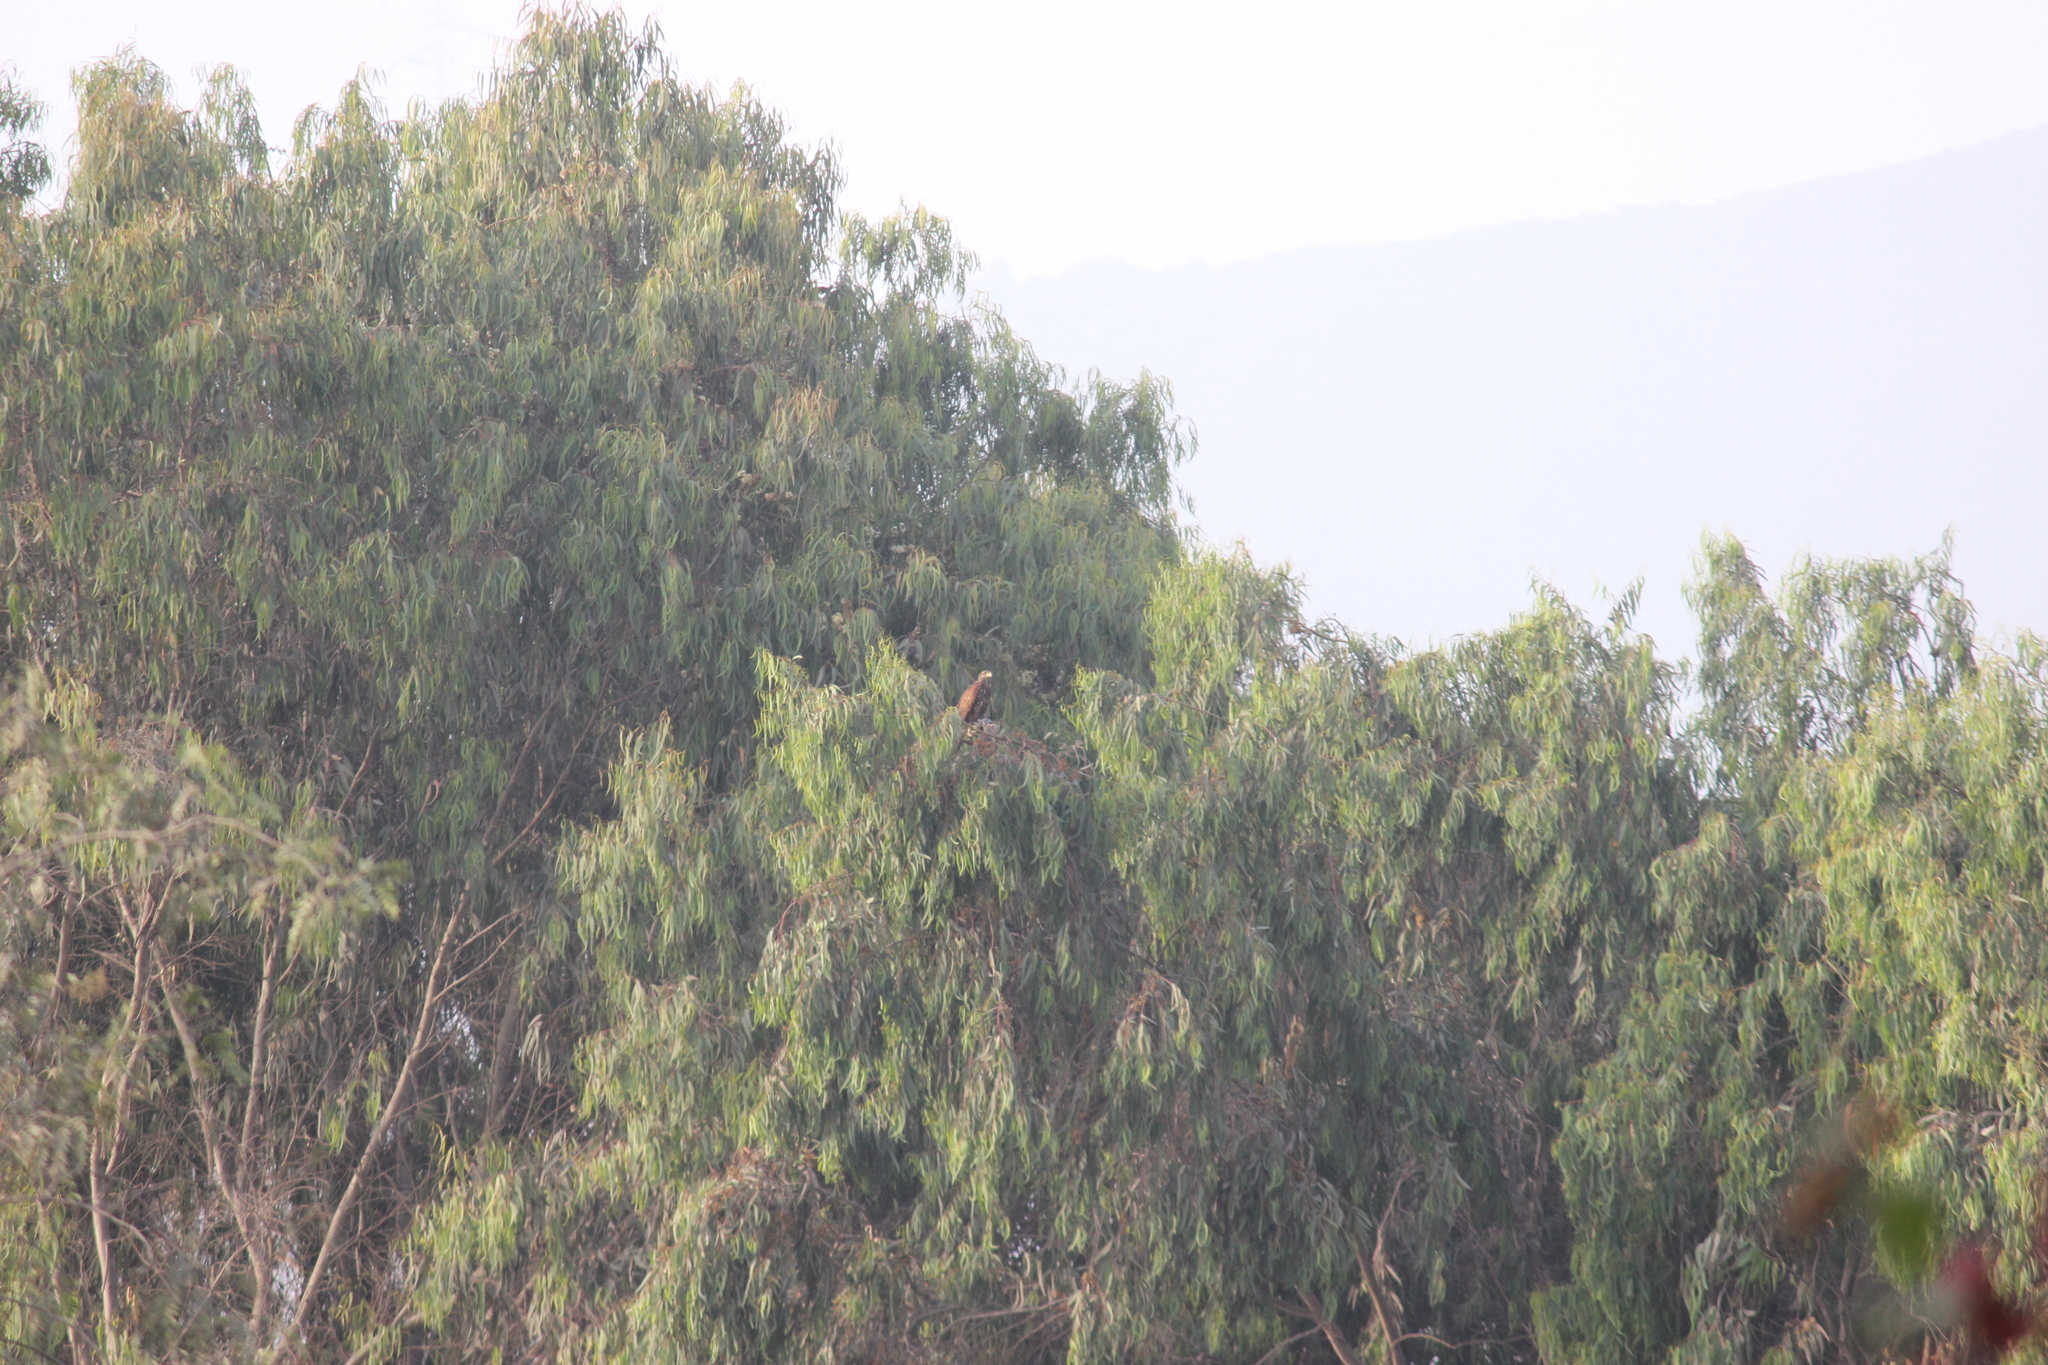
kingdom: Animalia
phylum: Chordata
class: Aves
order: Accipitriformes
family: Accipitridae
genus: Parabuteo
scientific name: Parabuteo unicinctus
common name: Harris's hawk
